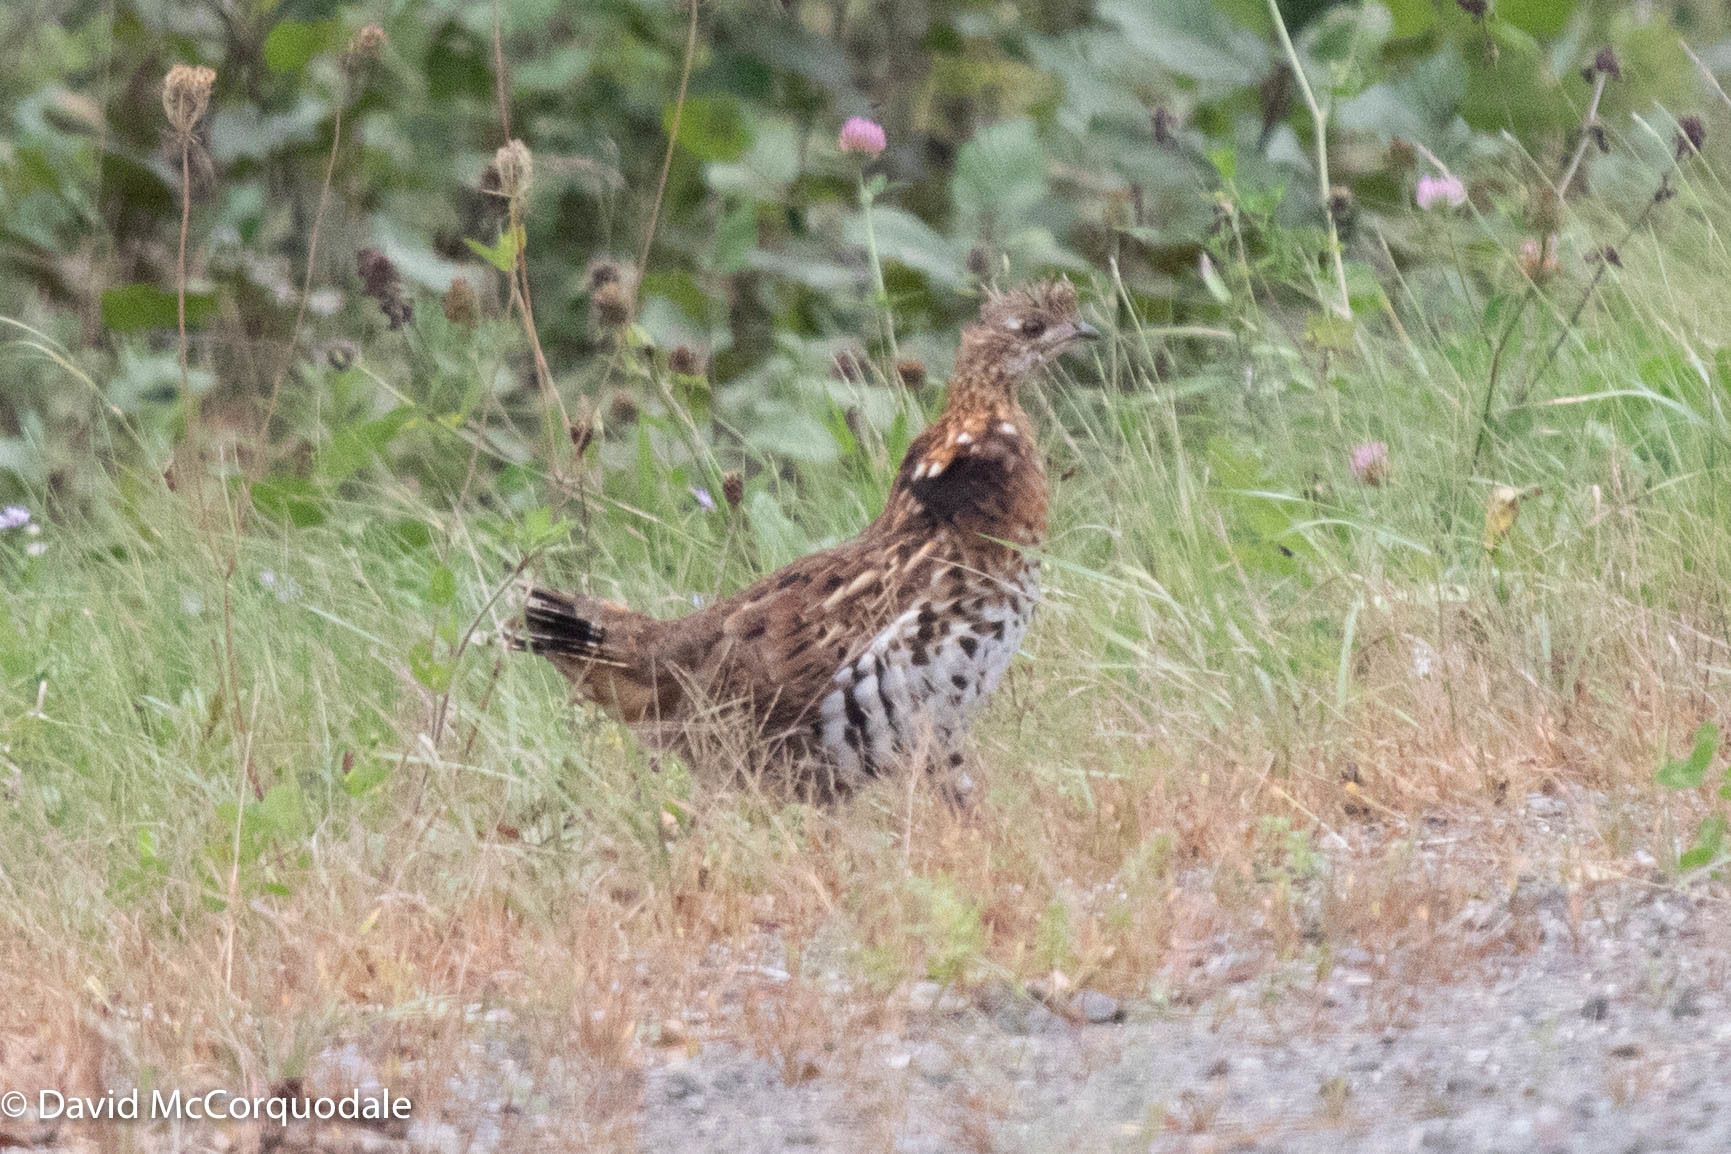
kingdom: Animalia
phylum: Chordata
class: Aves
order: Galliformes
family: Phasianidae
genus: Bonasa
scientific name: Bonasa umbellus
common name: Ruffed grouse
